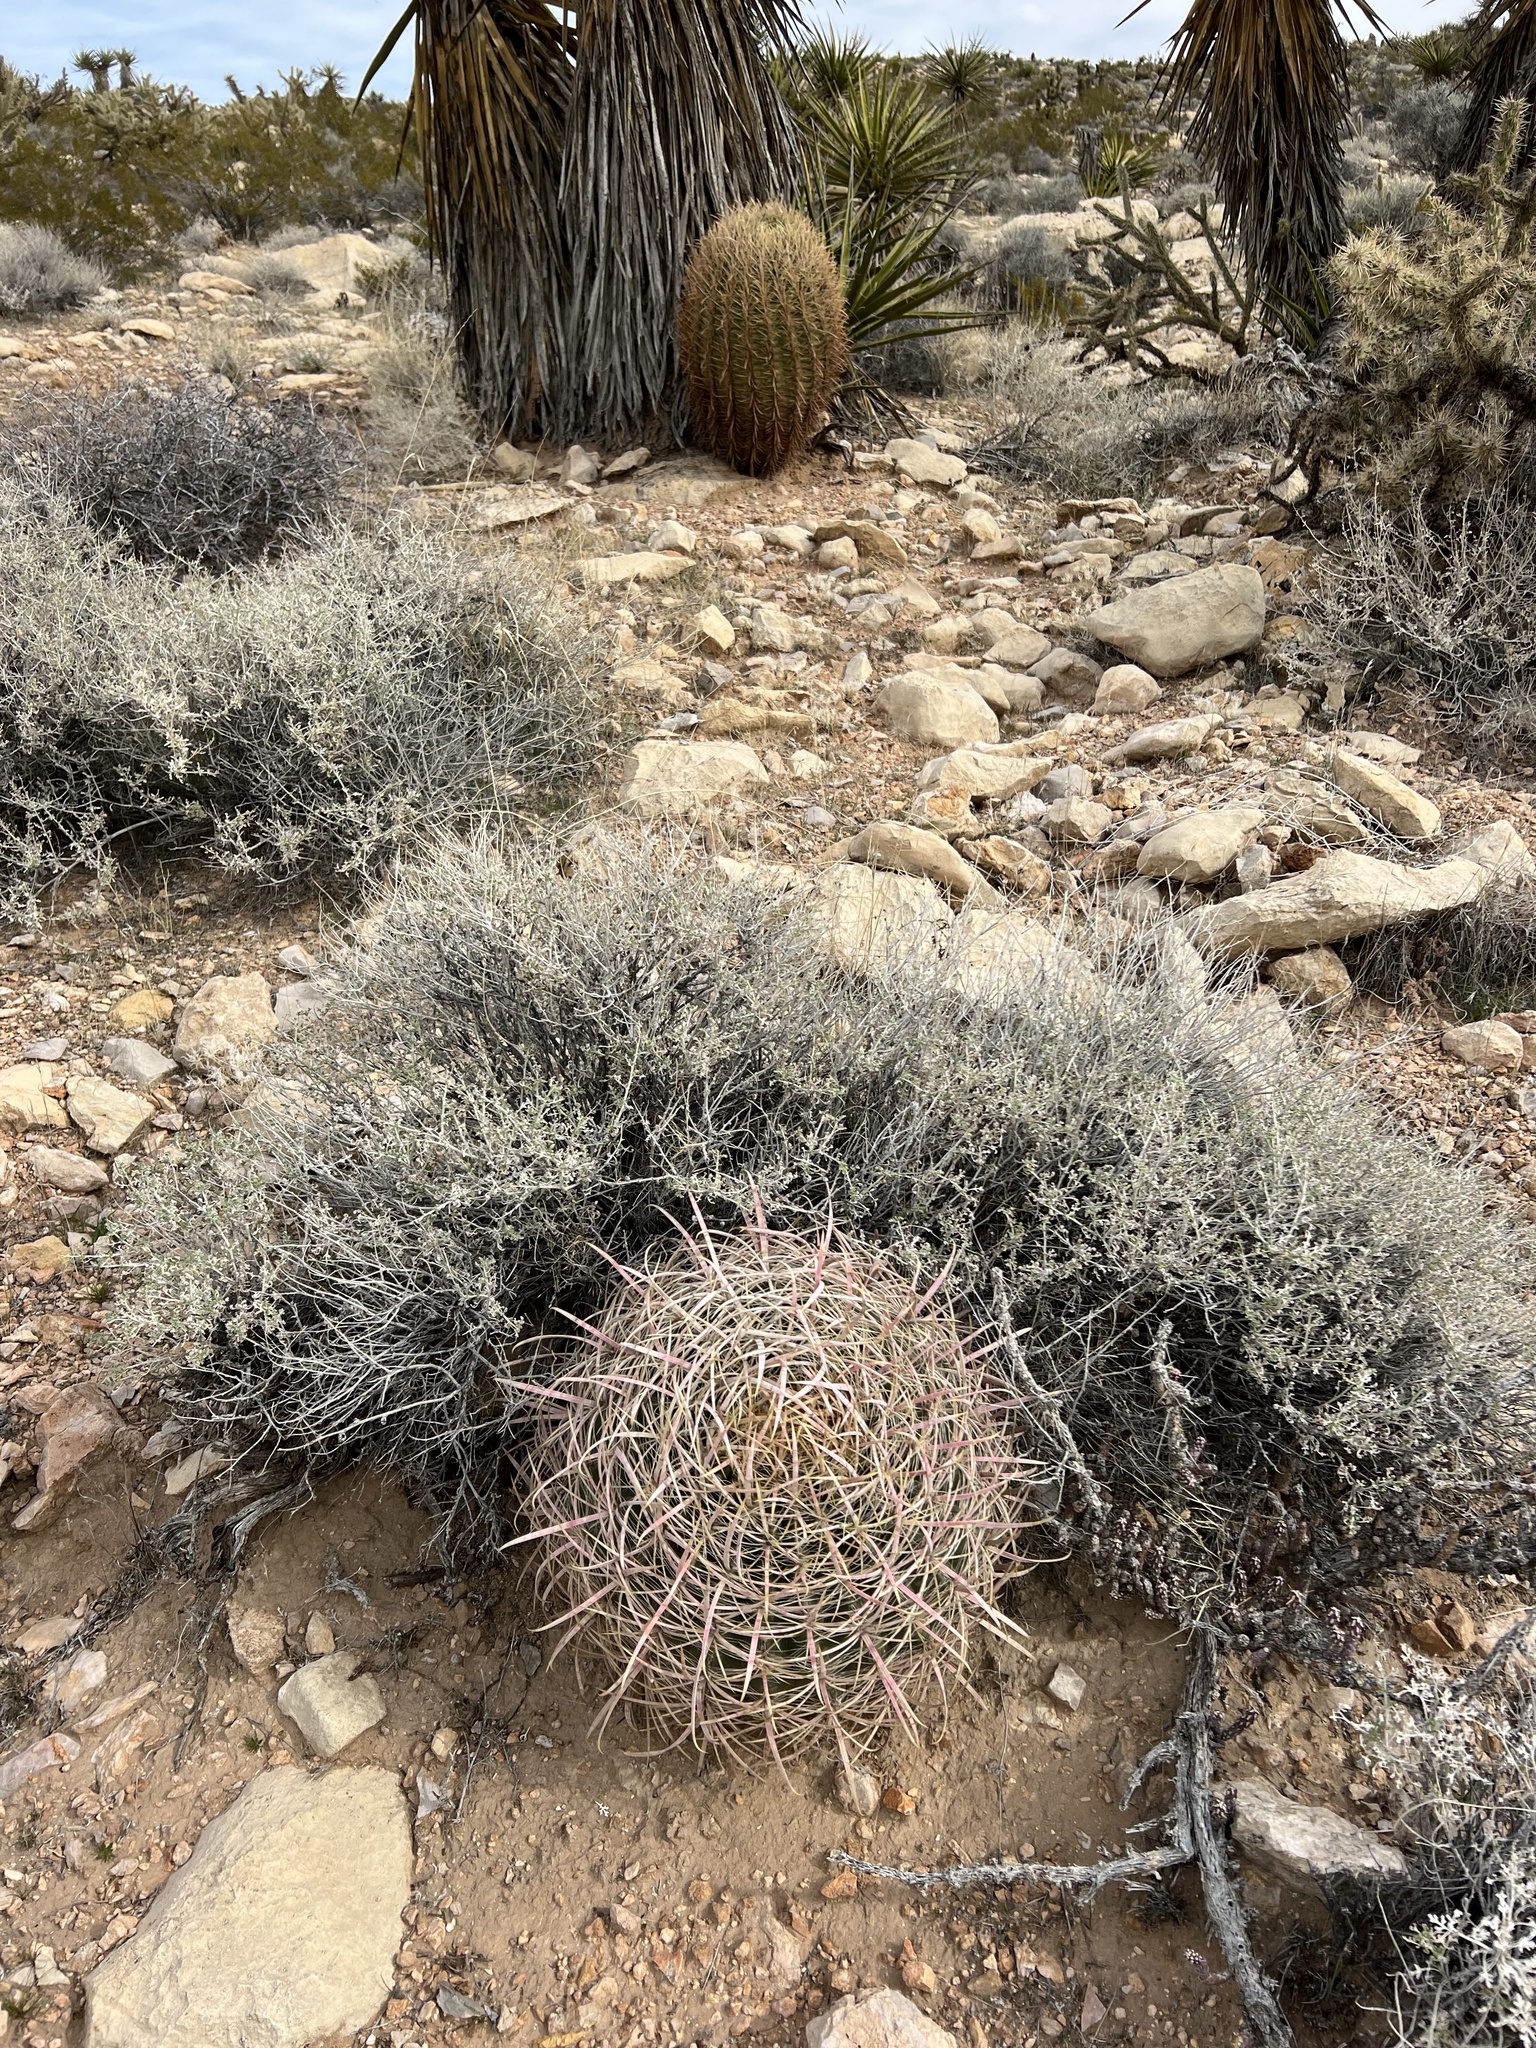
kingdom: Plantae
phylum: Tracheophyta
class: Magnoliopsida
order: Caryophyllales
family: Cactaceae
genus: Ferocactus
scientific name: Ferocactus cylindraceus
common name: California barrel cactus
